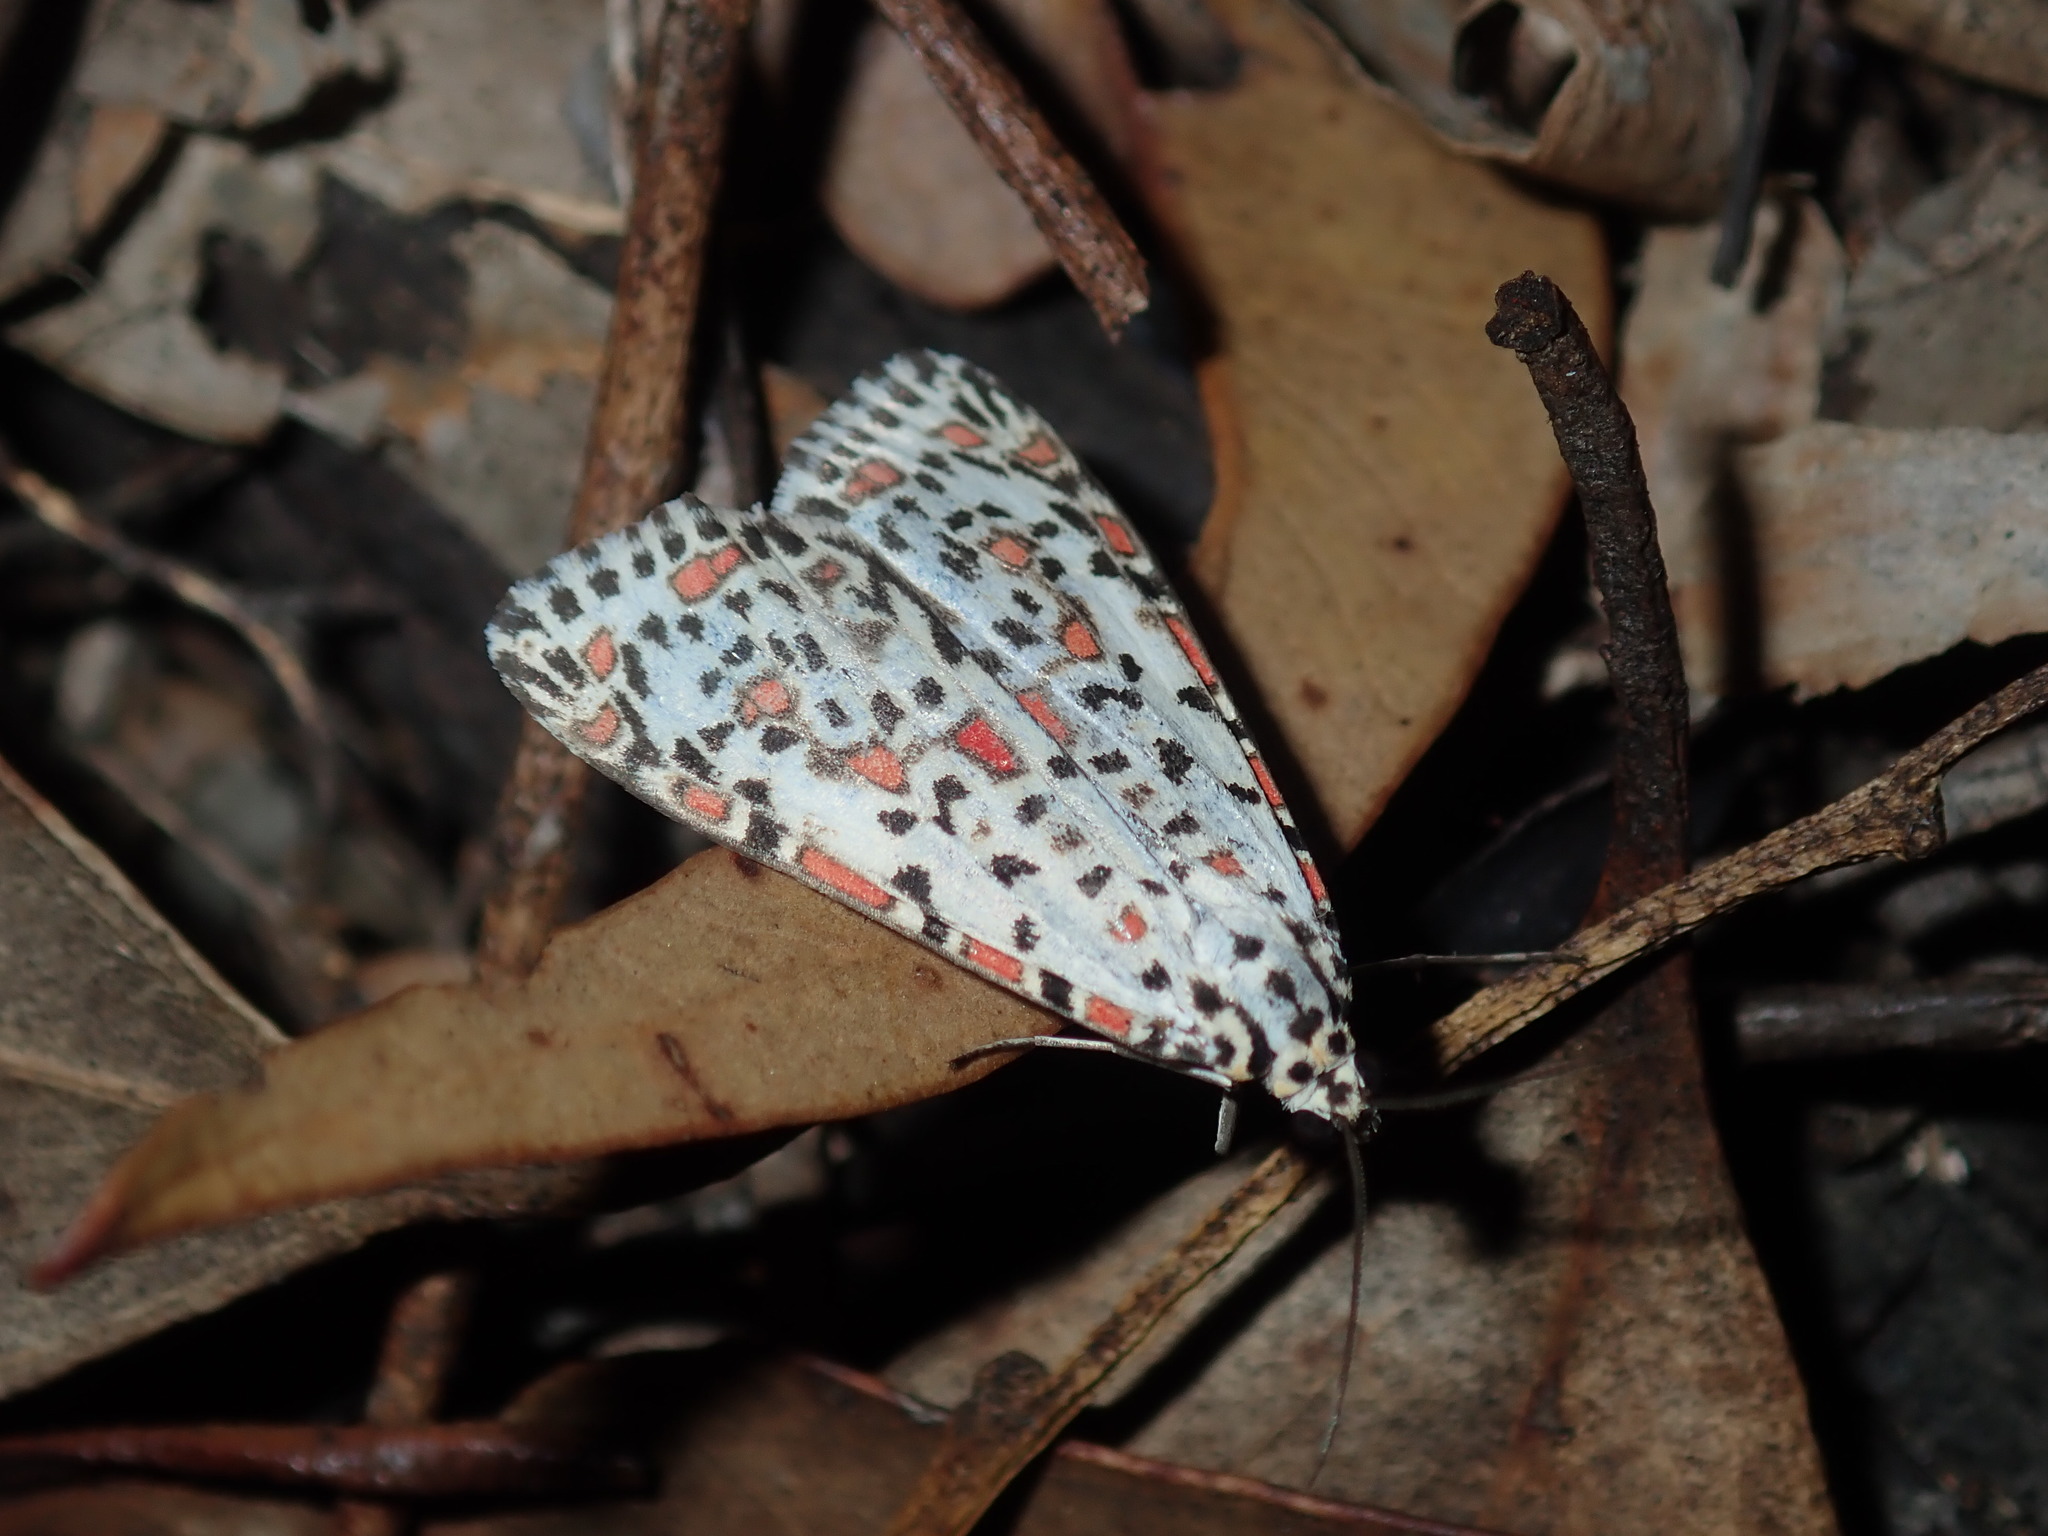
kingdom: Animalia
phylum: Arthropoda
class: Insecta
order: Lepidoptera
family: Erebidae
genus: Utetheisa
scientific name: Utetheisa pulchelloides
